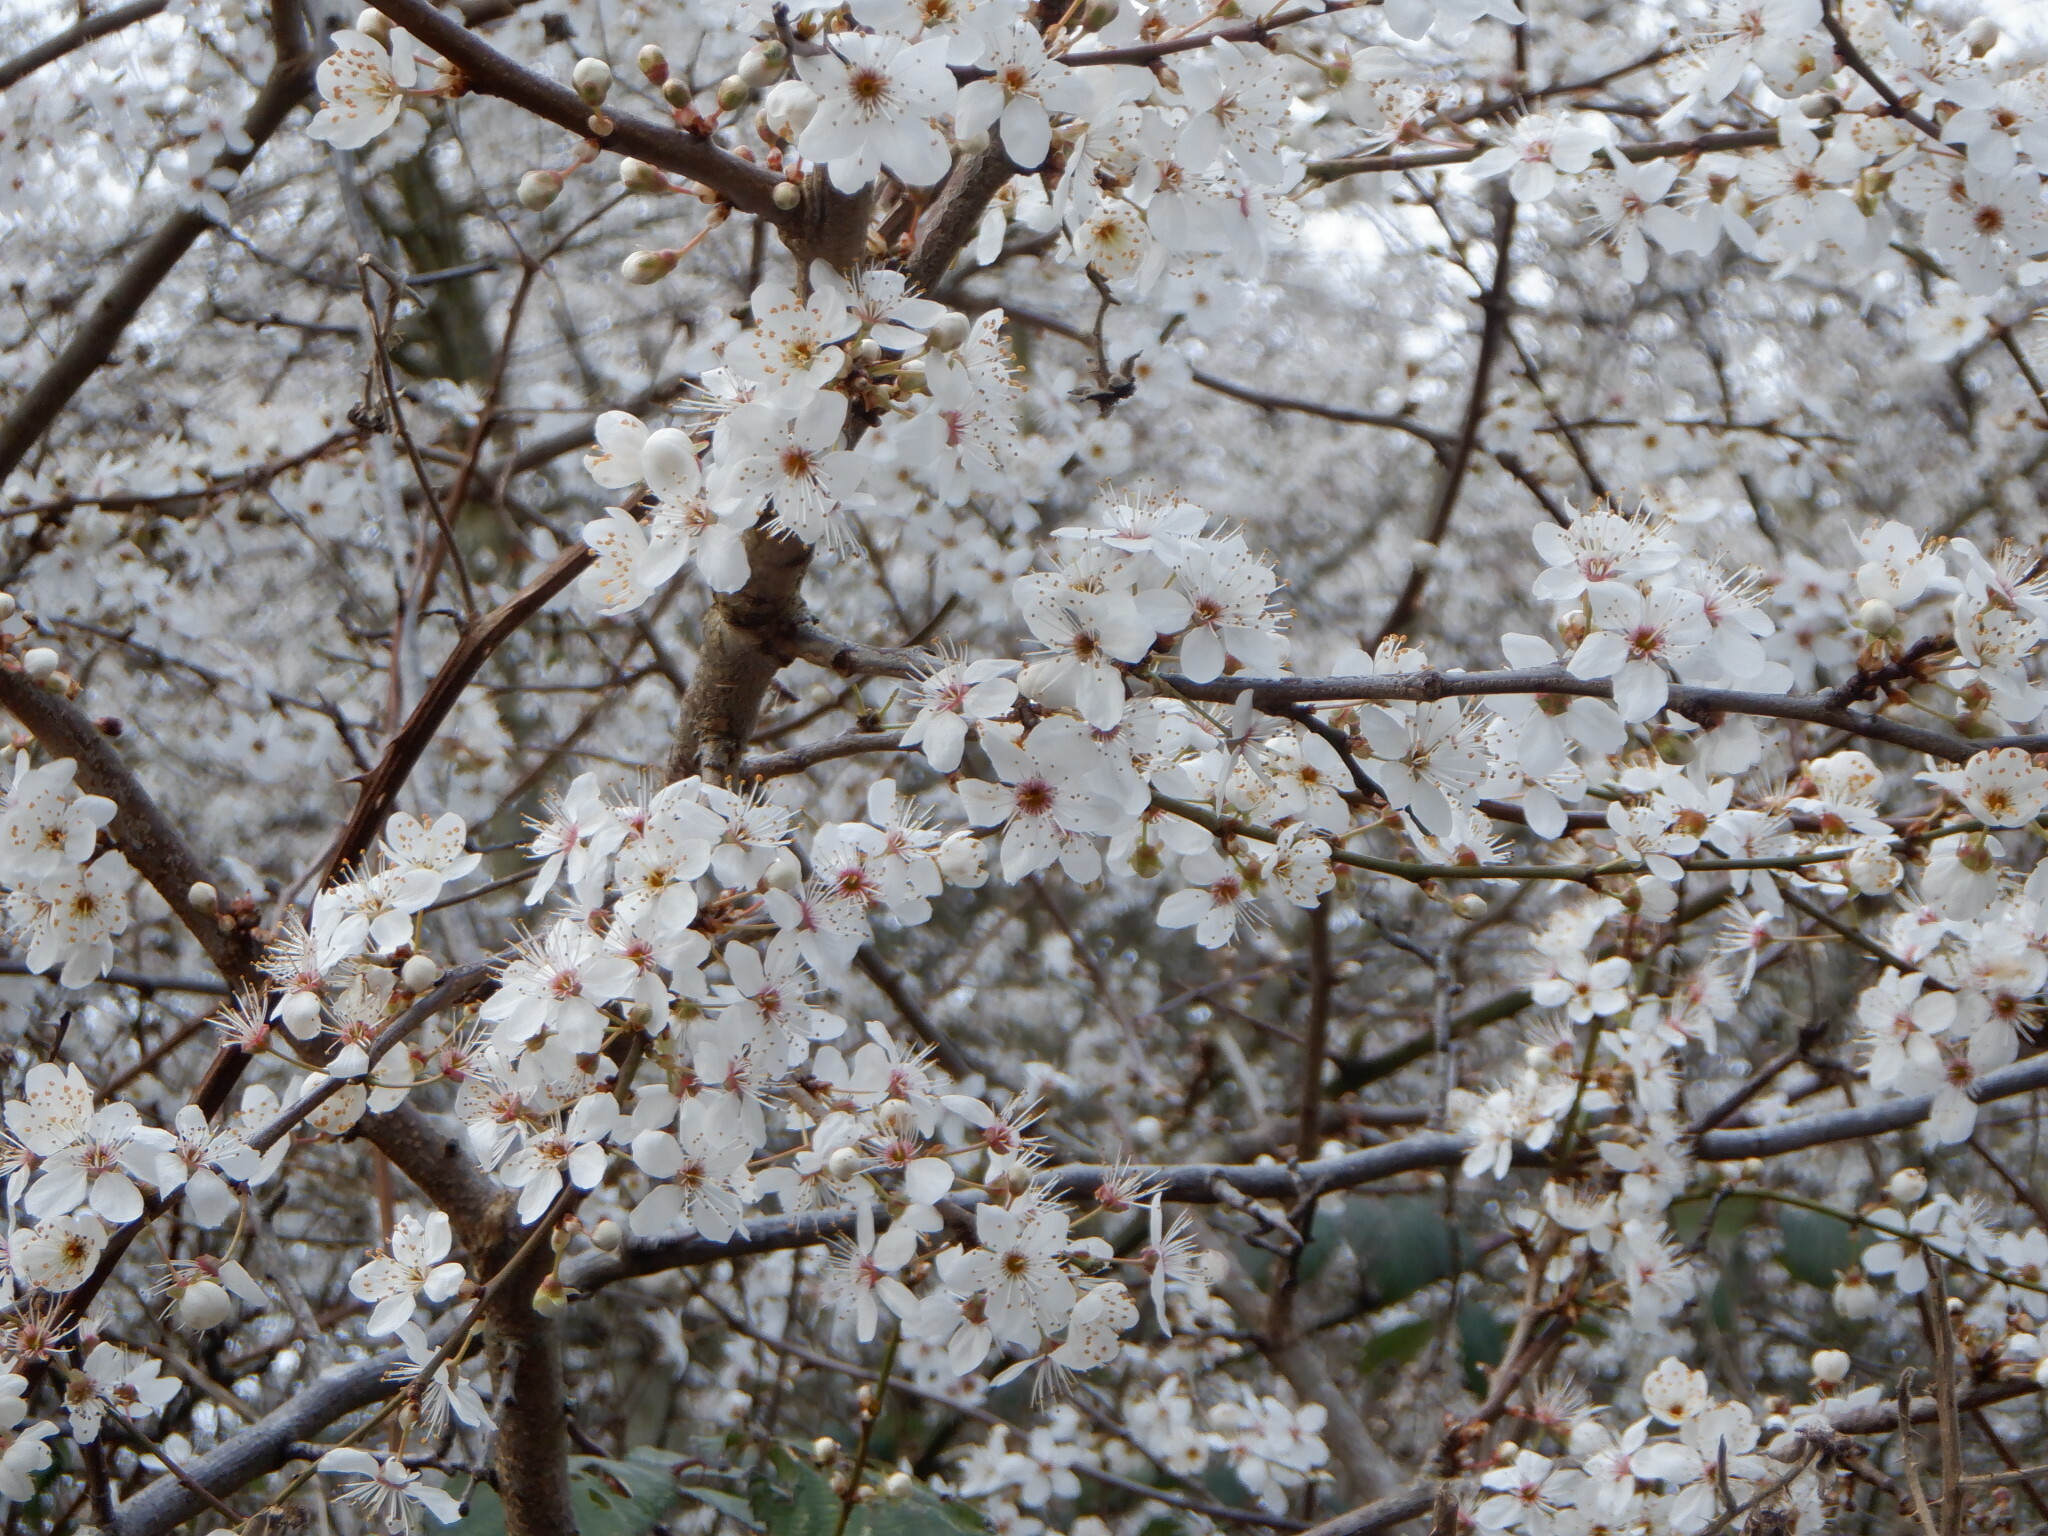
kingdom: Plantae
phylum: Tracheophyta
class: Magnoliopsida
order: Rosales
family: Rosaceae
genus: Prunus
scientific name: Prunus cerasifera
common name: Cherry plum
